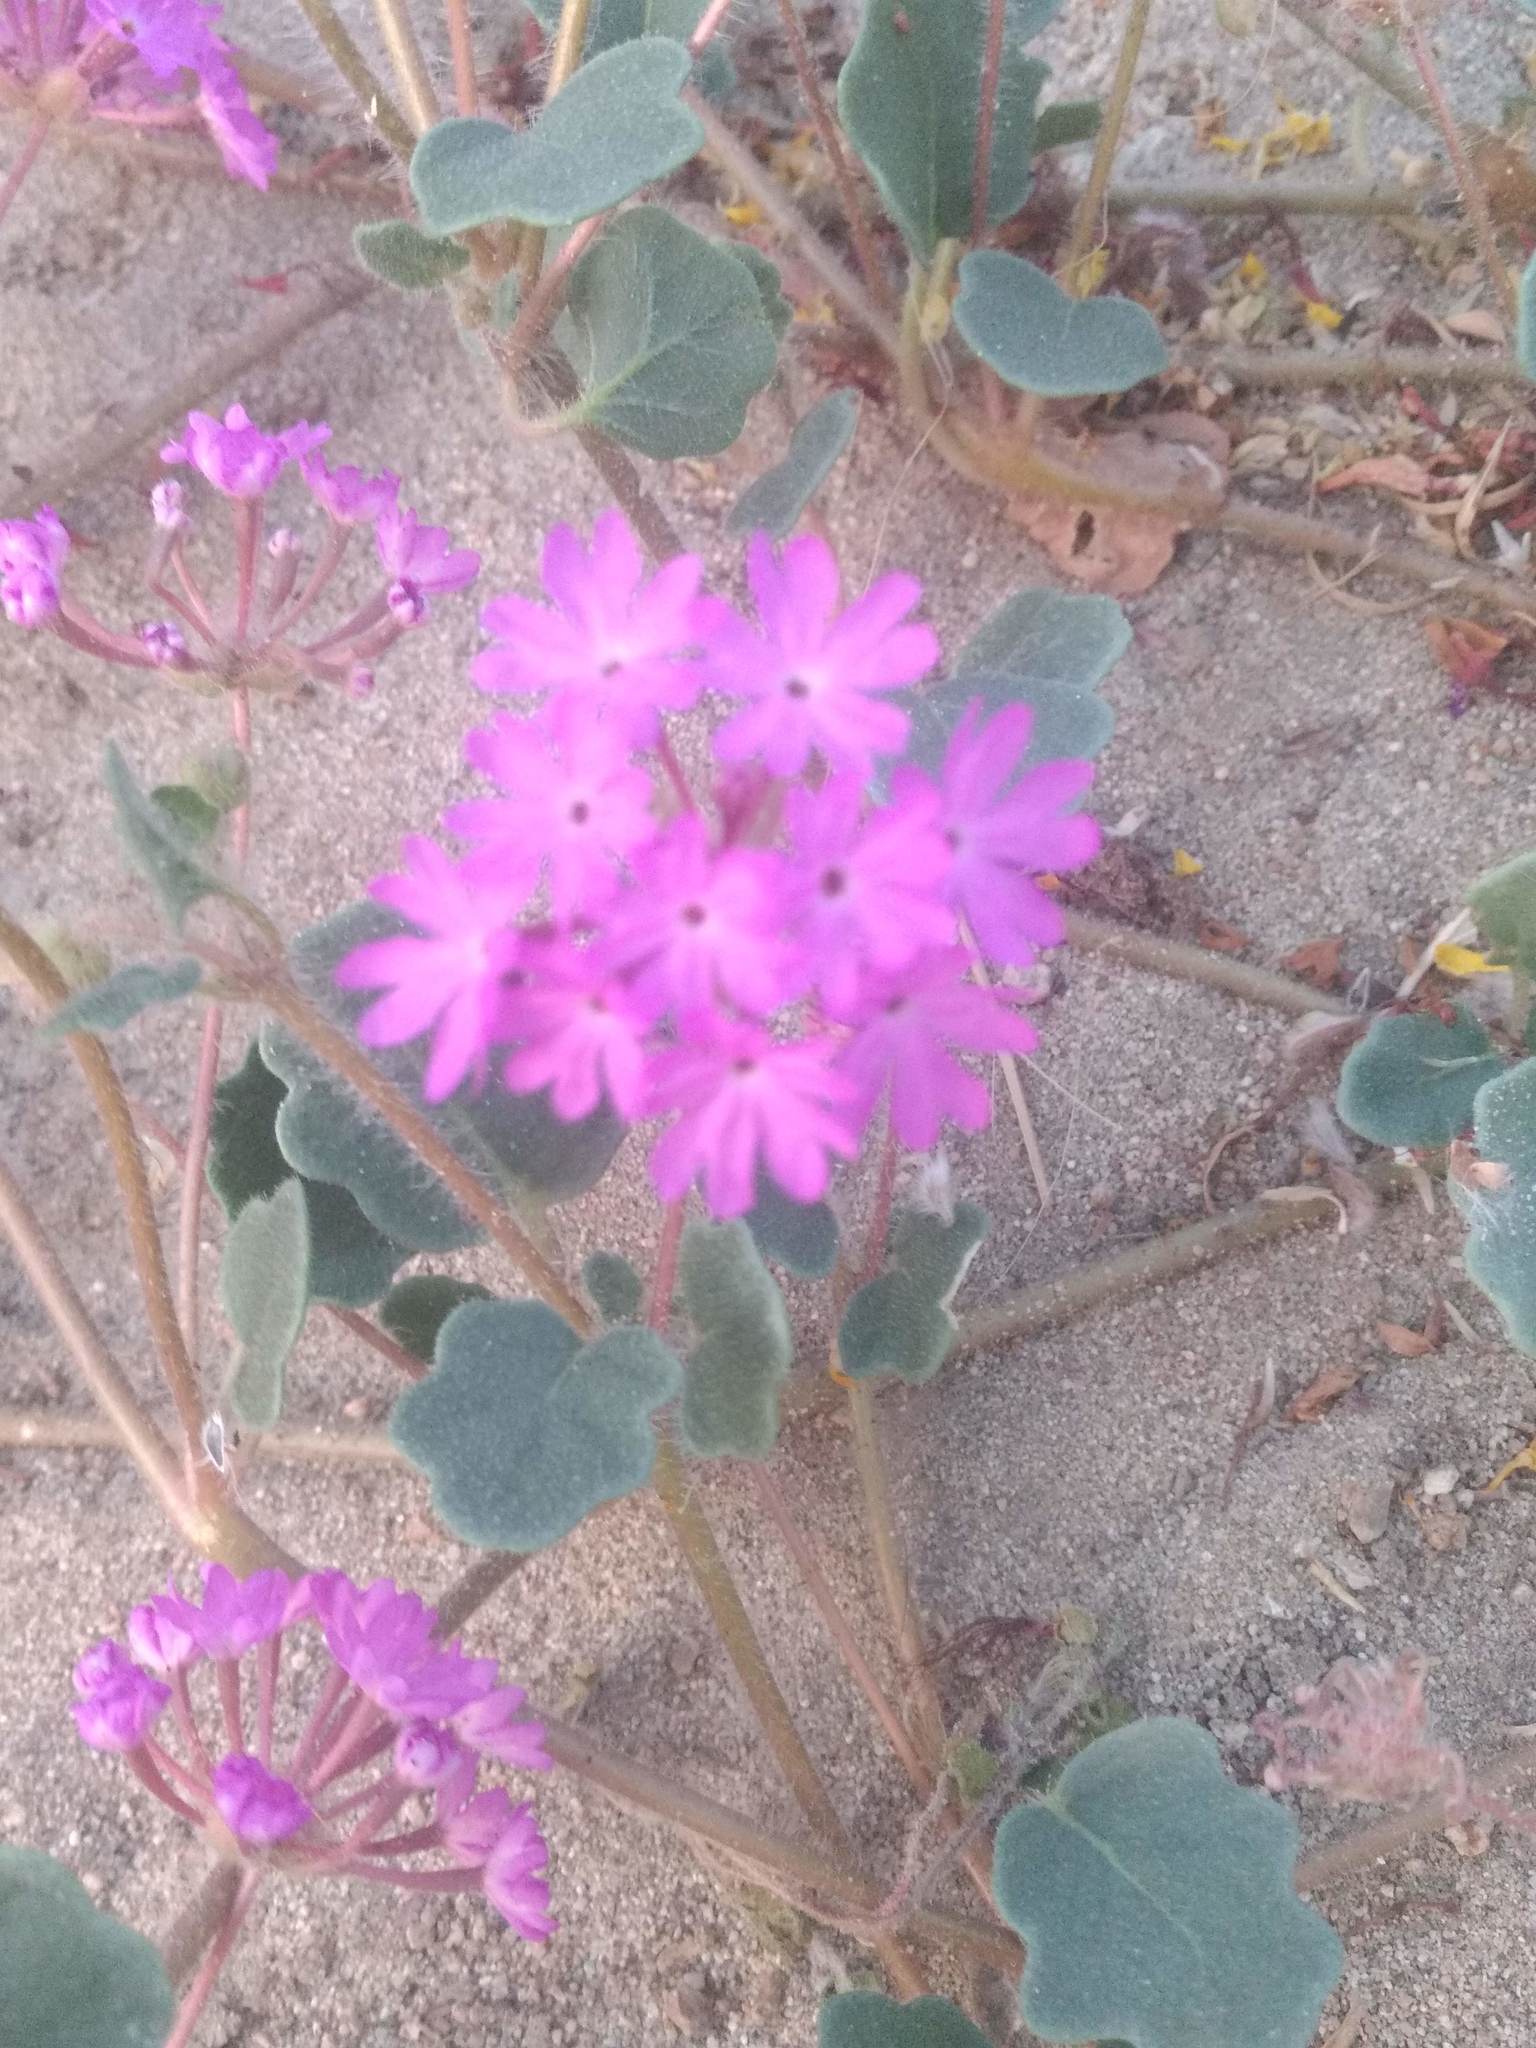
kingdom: Plantae
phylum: Tracheophyta
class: Magnoliopsida
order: Caryophyllales
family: Nyctaginaceae
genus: Abronia
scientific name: Abronia villosa
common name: Desert sand-verbena
